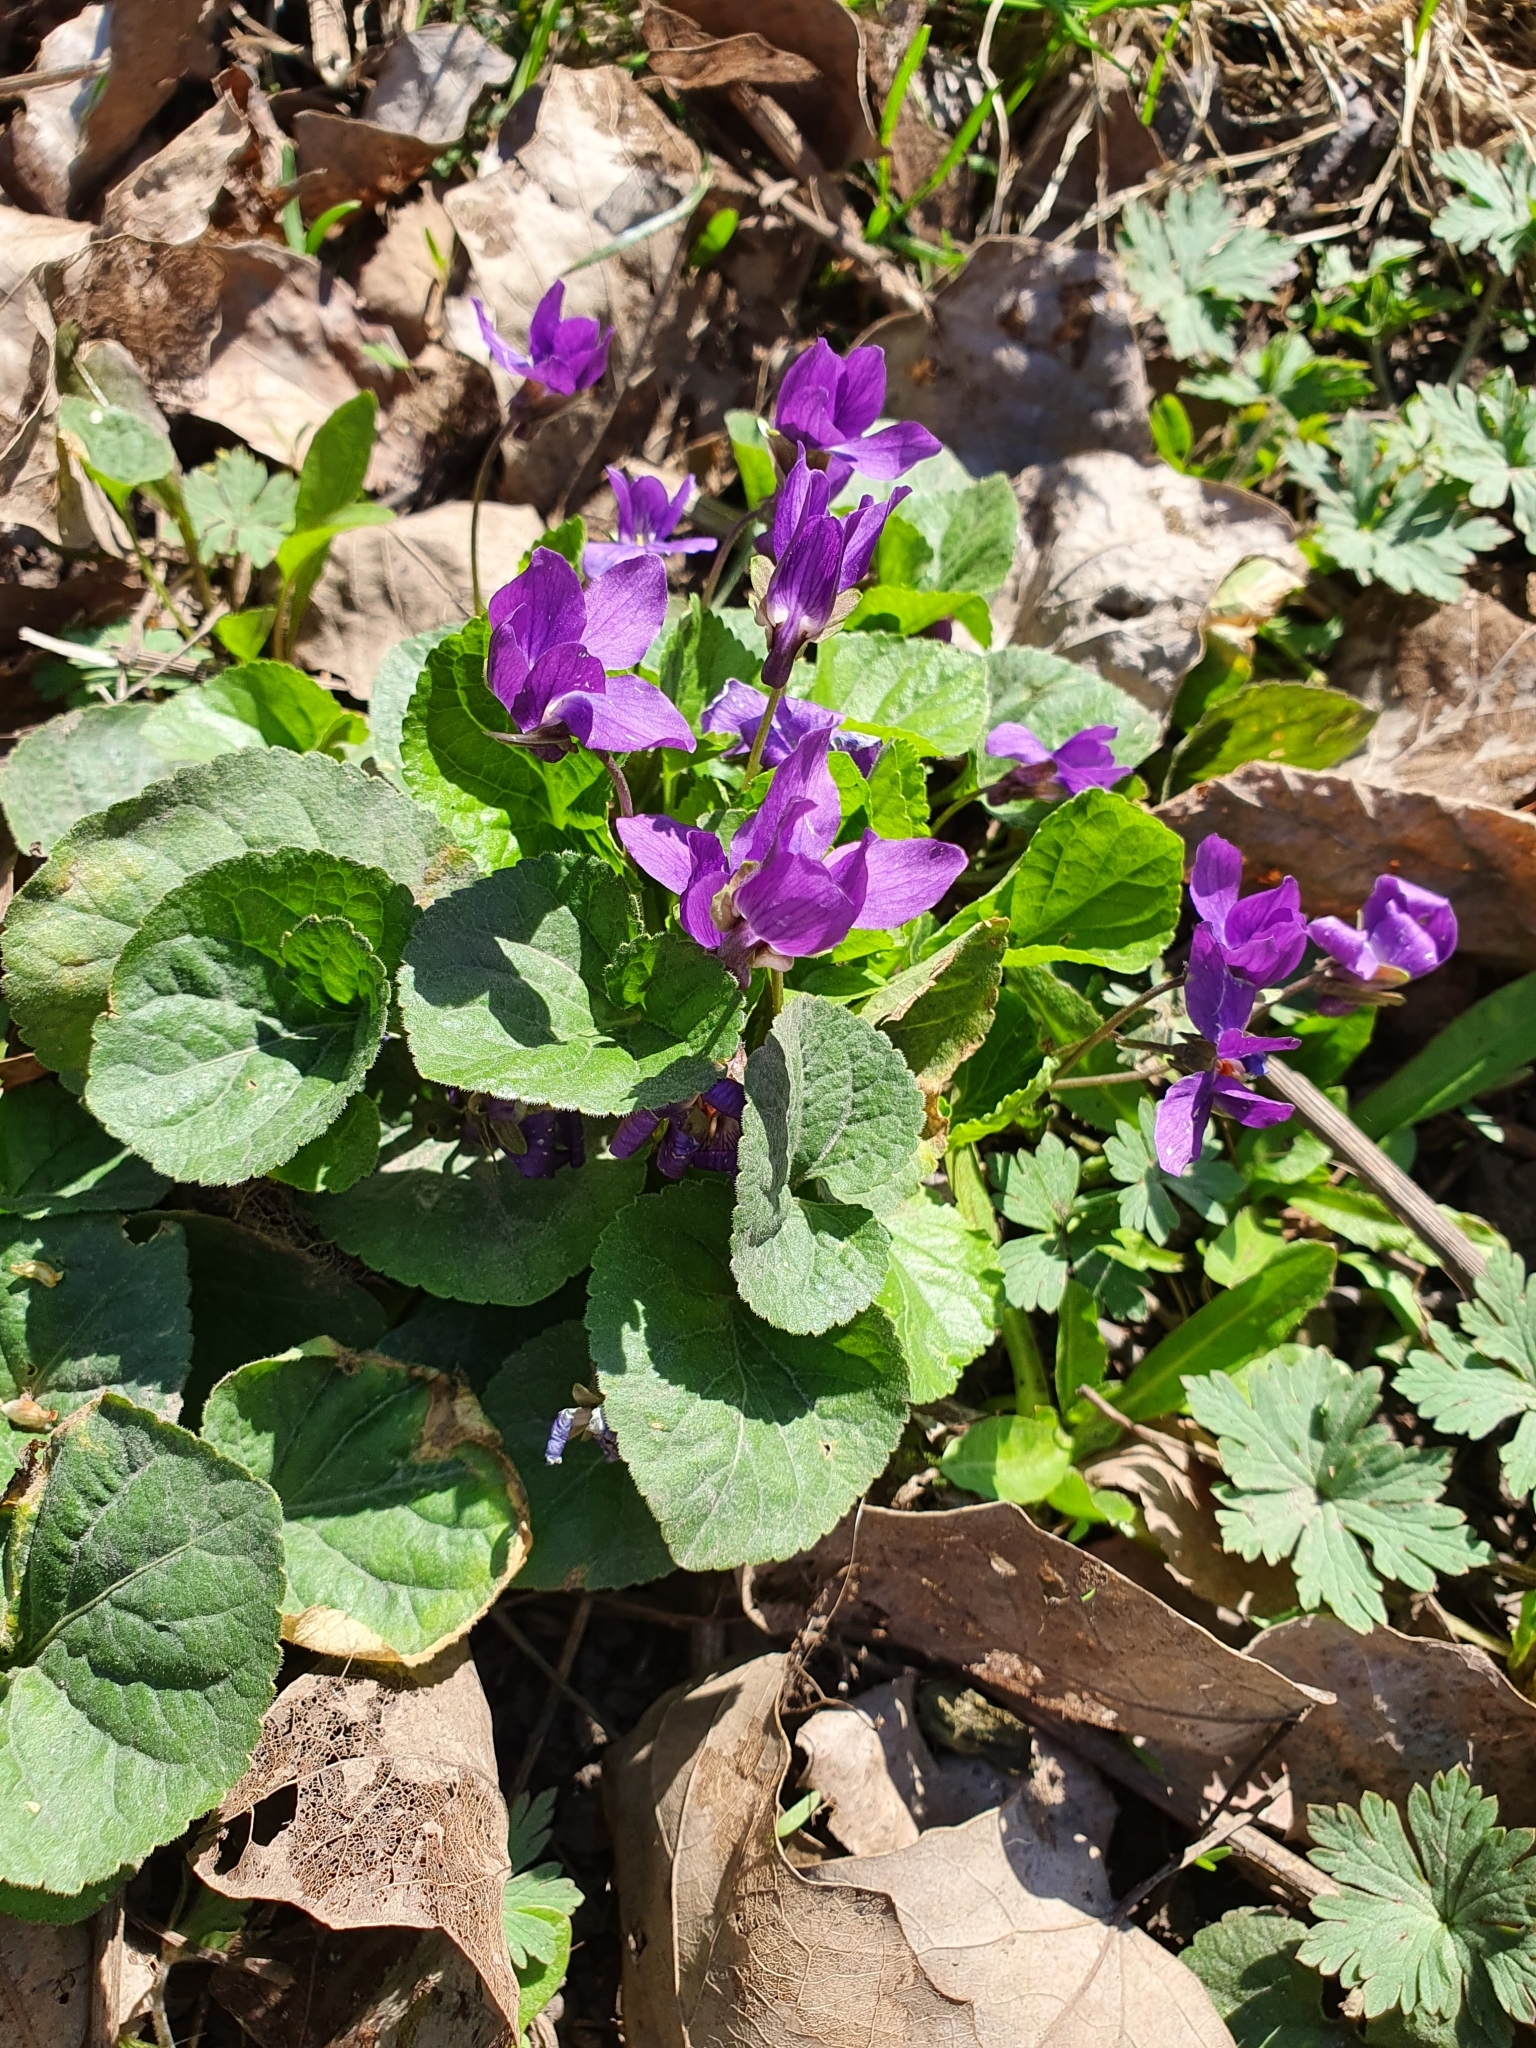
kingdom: Plantae
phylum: Tracheophyta
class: Magnoliopsida
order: Malpighiales
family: Violaceae
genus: Viola
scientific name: Viola odorata
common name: Sweet violet
